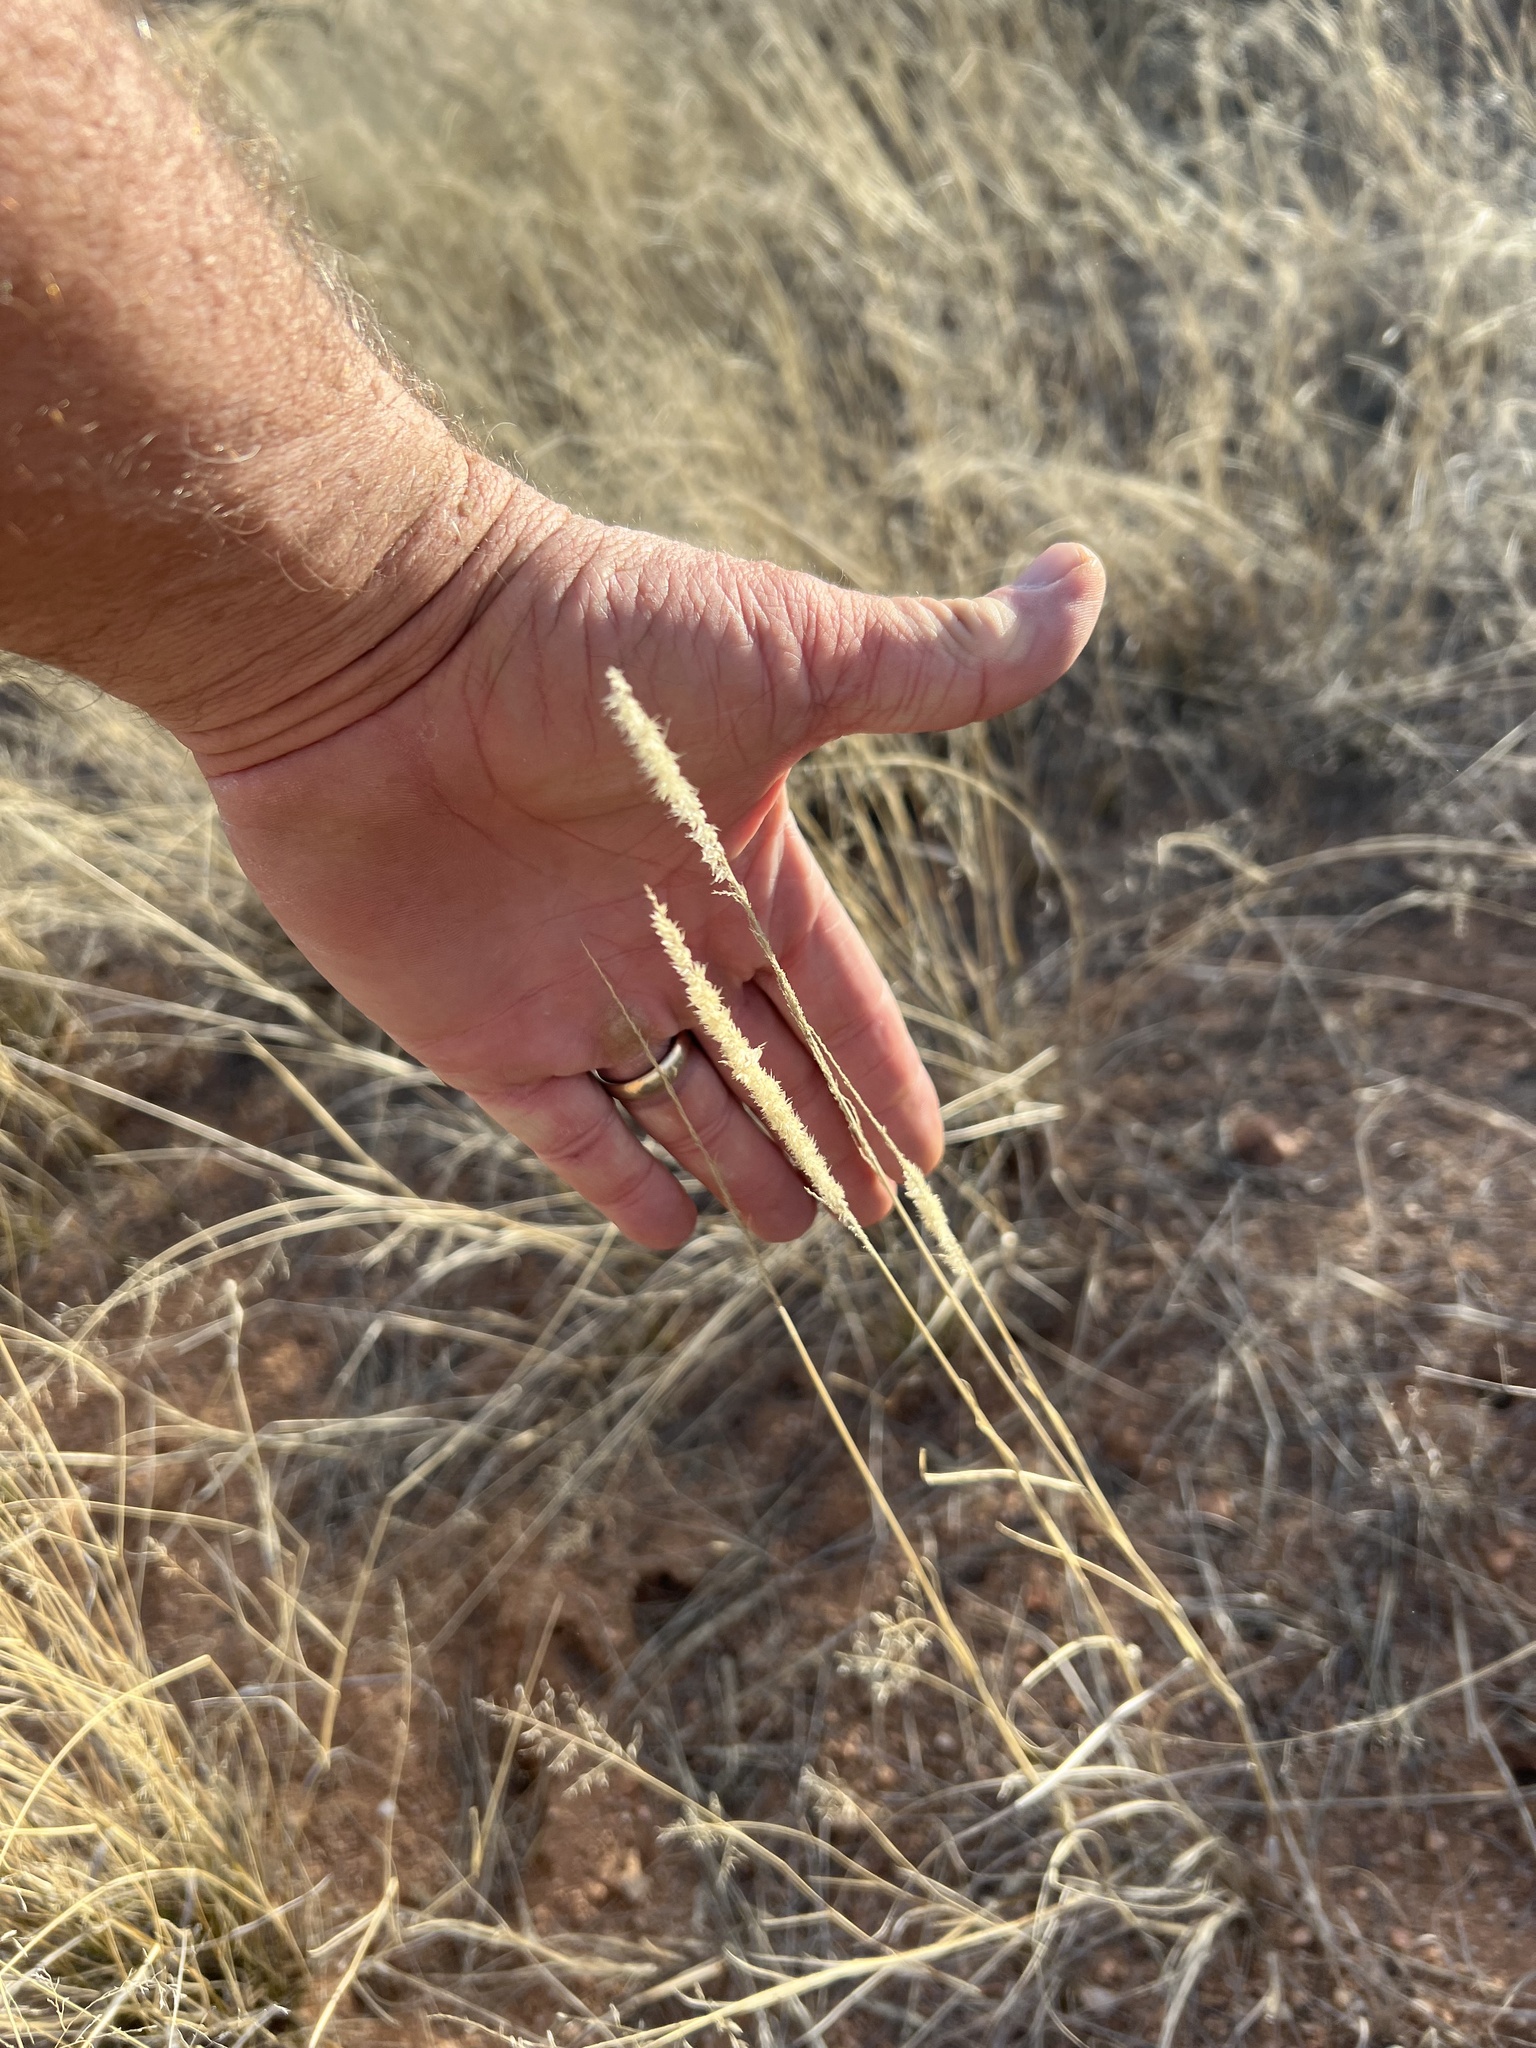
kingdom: Plantae
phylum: Tracheophyta
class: Liliopsida
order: Poales
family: Poaceae
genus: Hilaria
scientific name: Hilaria mutica
